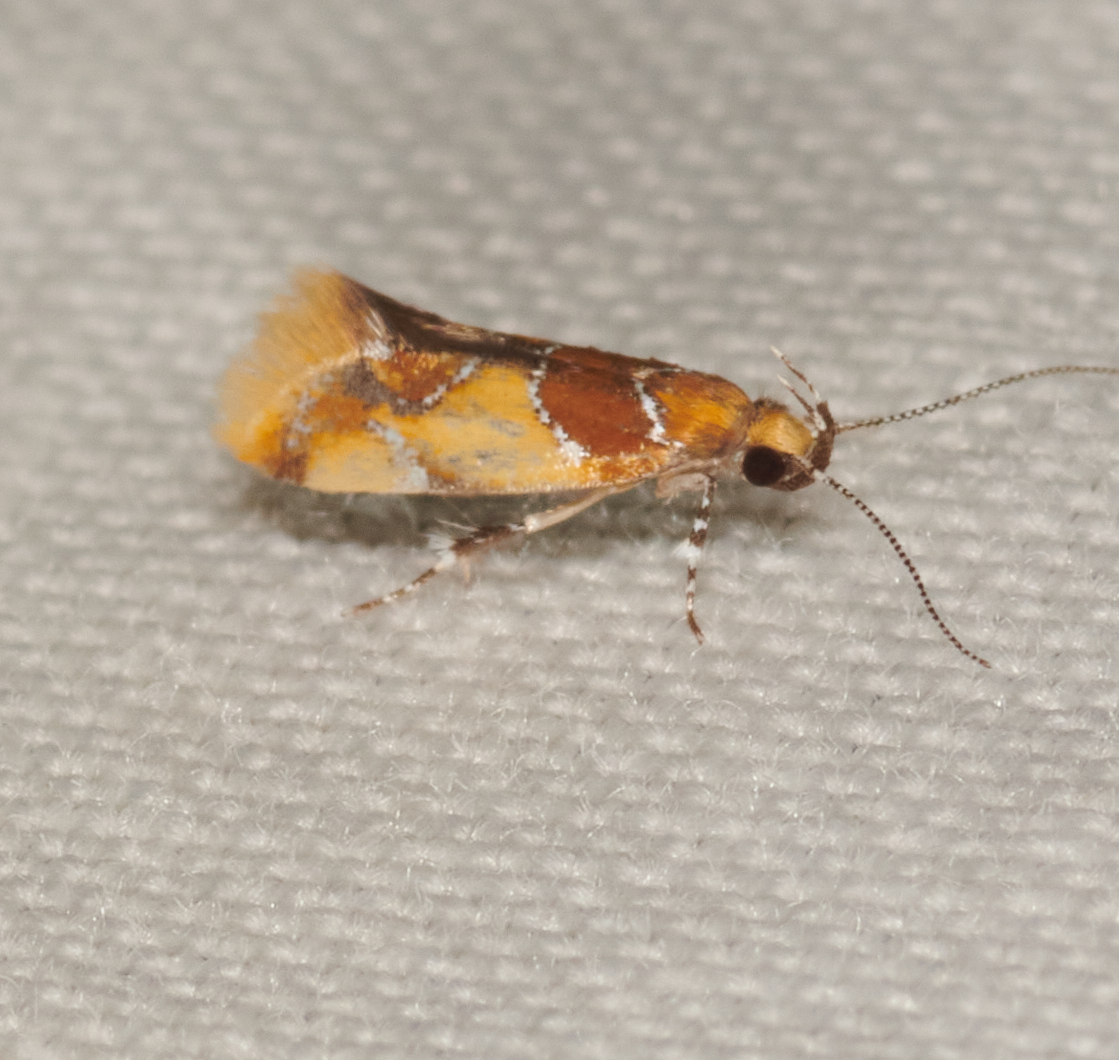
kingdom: Animalia
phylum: Arthropoda
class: Insecta
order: Lepidoptera
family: Oecophoridae
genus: Callima
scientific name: Callima argenticinctella
